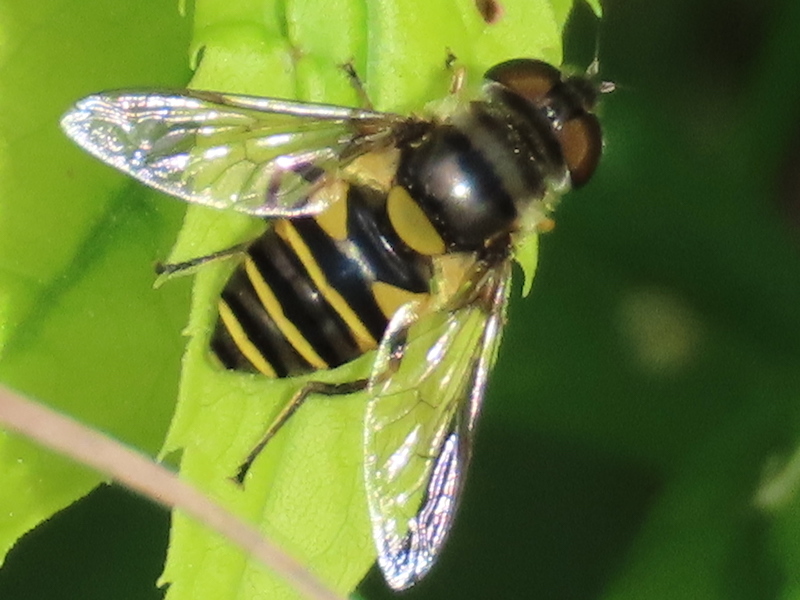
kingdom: Animalia
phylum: Arthropoda
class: Insecta
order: Diptera
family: Syrphidae
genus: Eristalis
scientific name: Eristalis transversa
